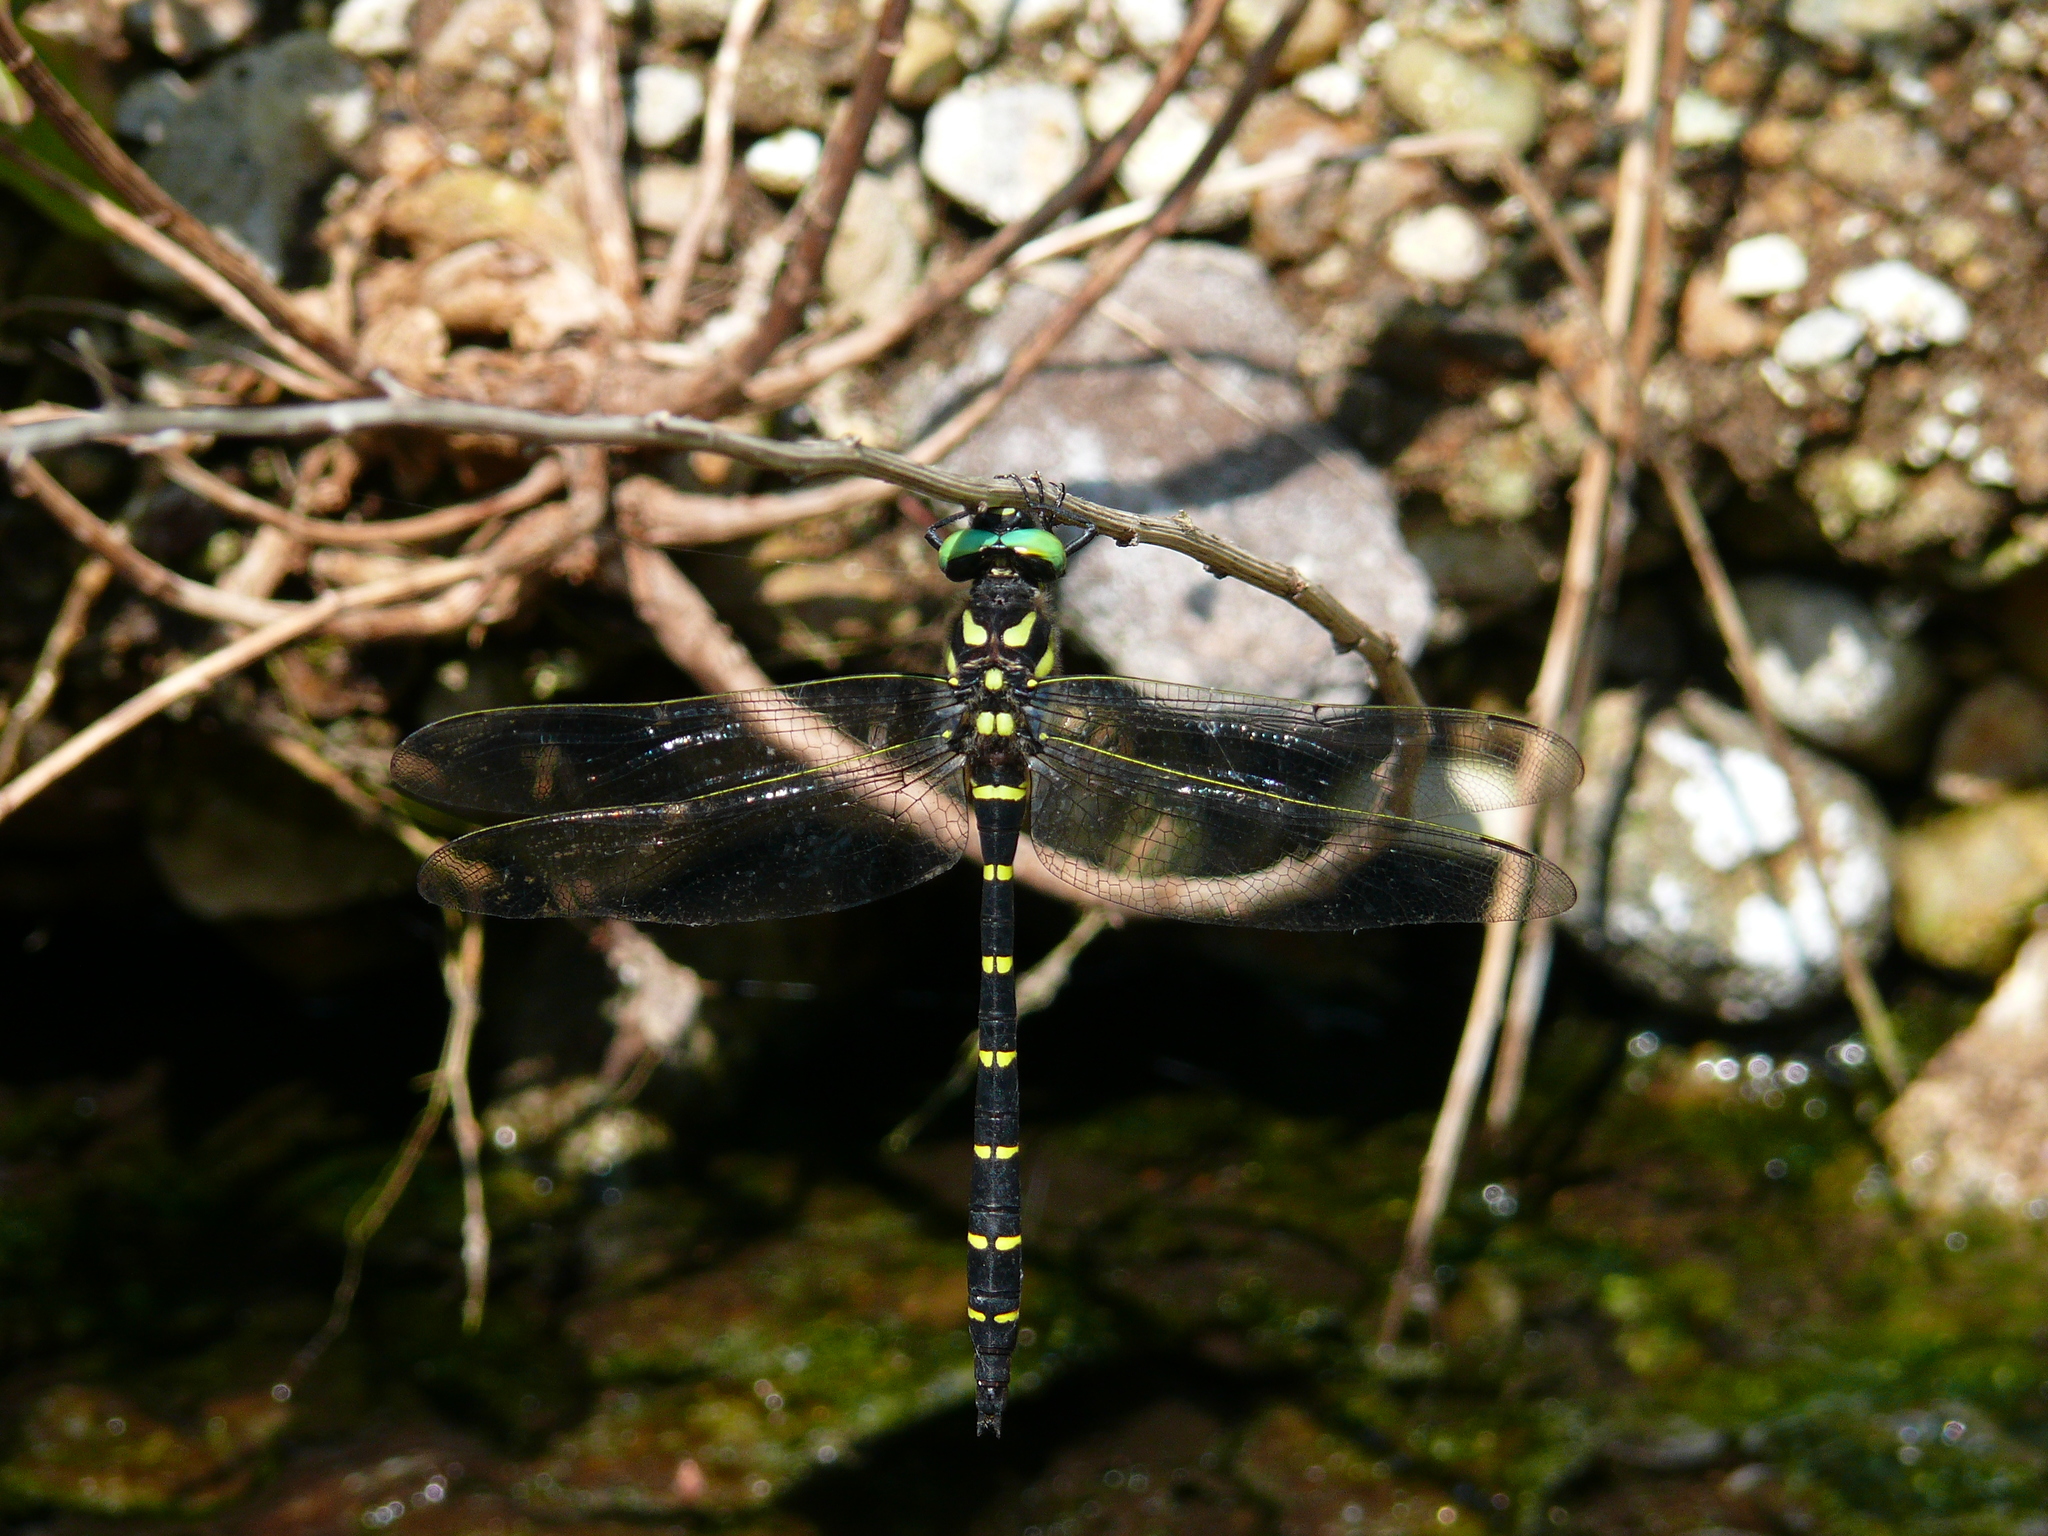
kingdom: Animalia
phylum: Arthropoda
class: Insecta
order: Odonata
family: Cordulegastridae
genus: Anotogaster
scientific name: Anotogaster sieboldii
